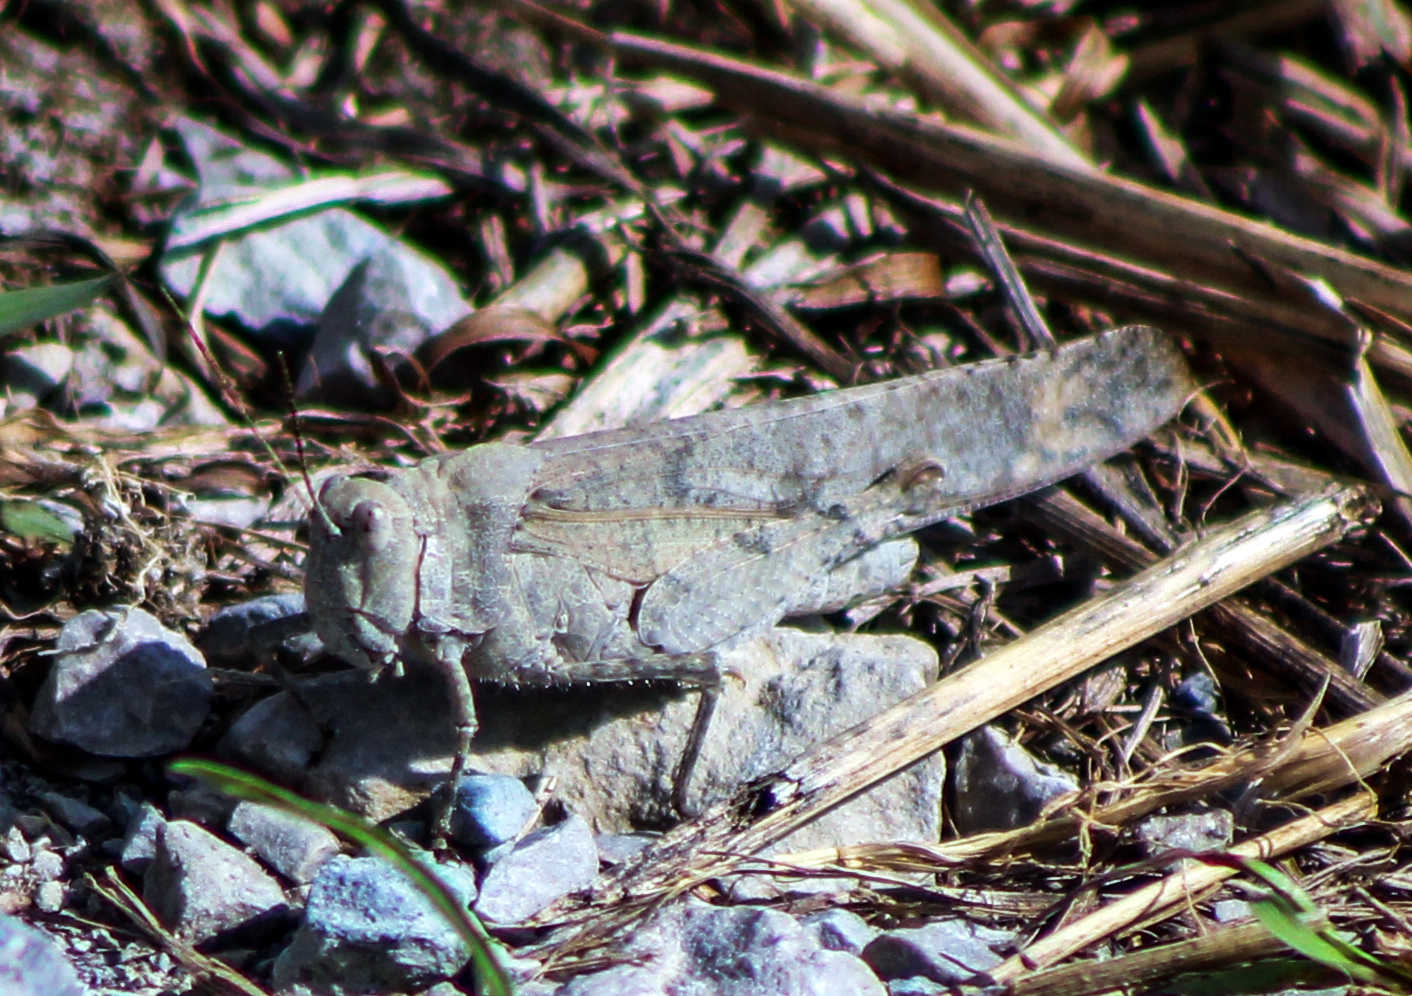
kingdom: Animalia
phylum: Arthropoda
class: Insecta
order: Orthoptera
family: Acrididae
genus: Dissosteira
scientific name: Dissosteira carolina
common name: Carolina grasshopper
